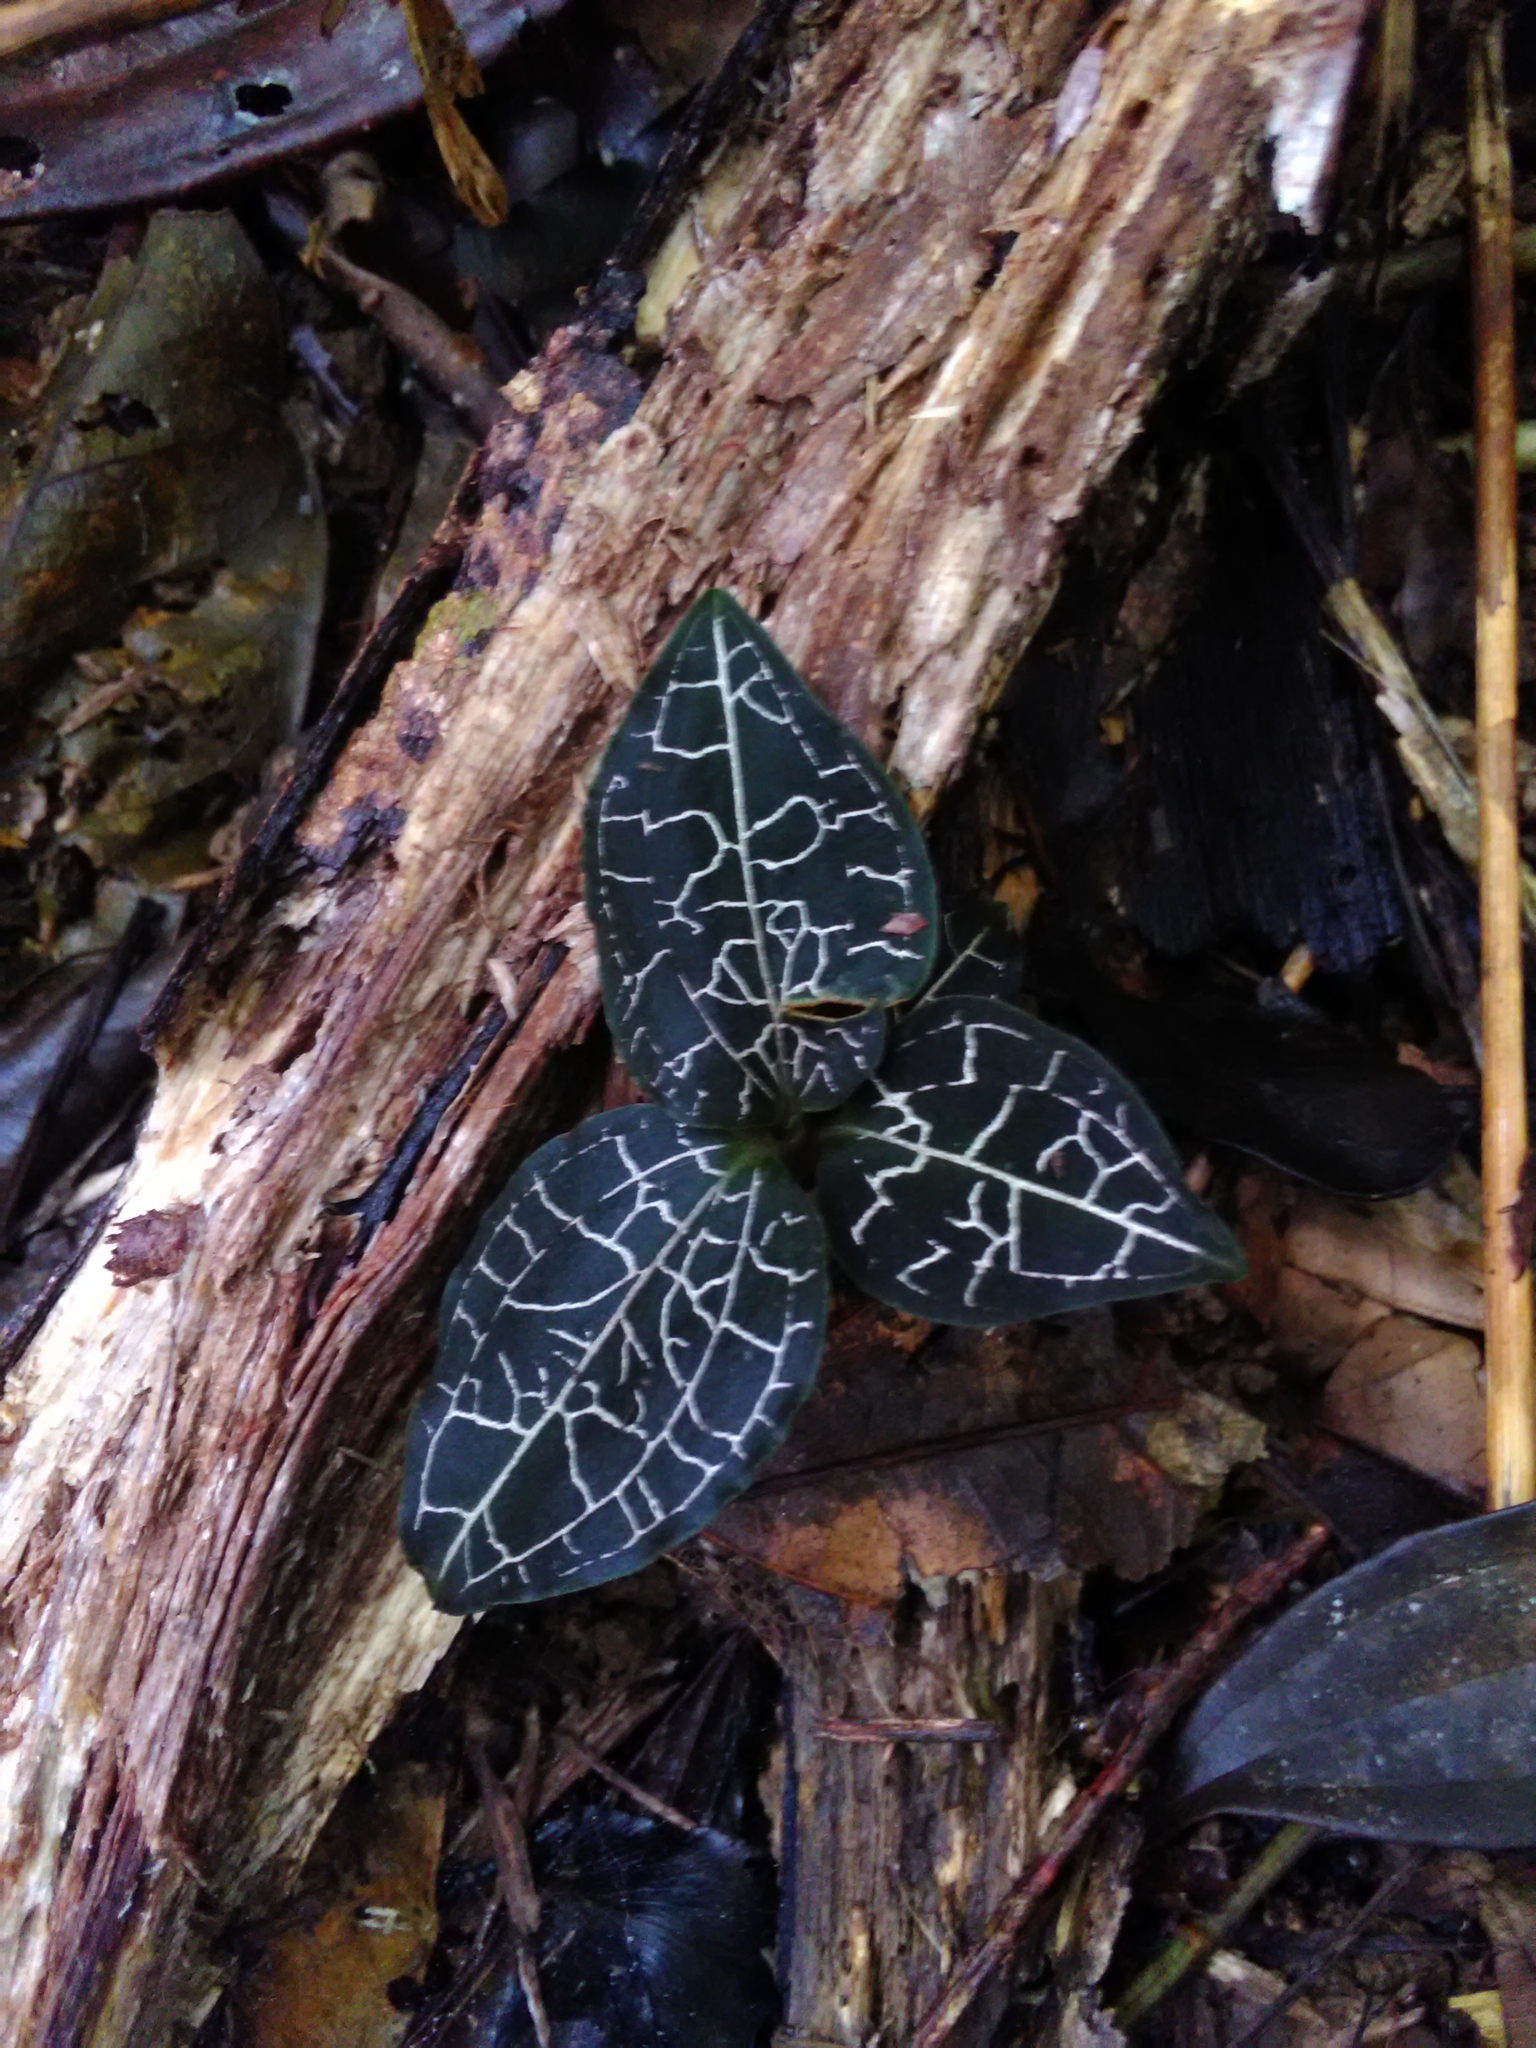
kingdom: Plantae
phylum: Tracheophyta
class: Liliopsida
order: Asparagales
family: Orchidaceae
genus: Anoectochilus
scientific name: Anoectochilus yatesiae
